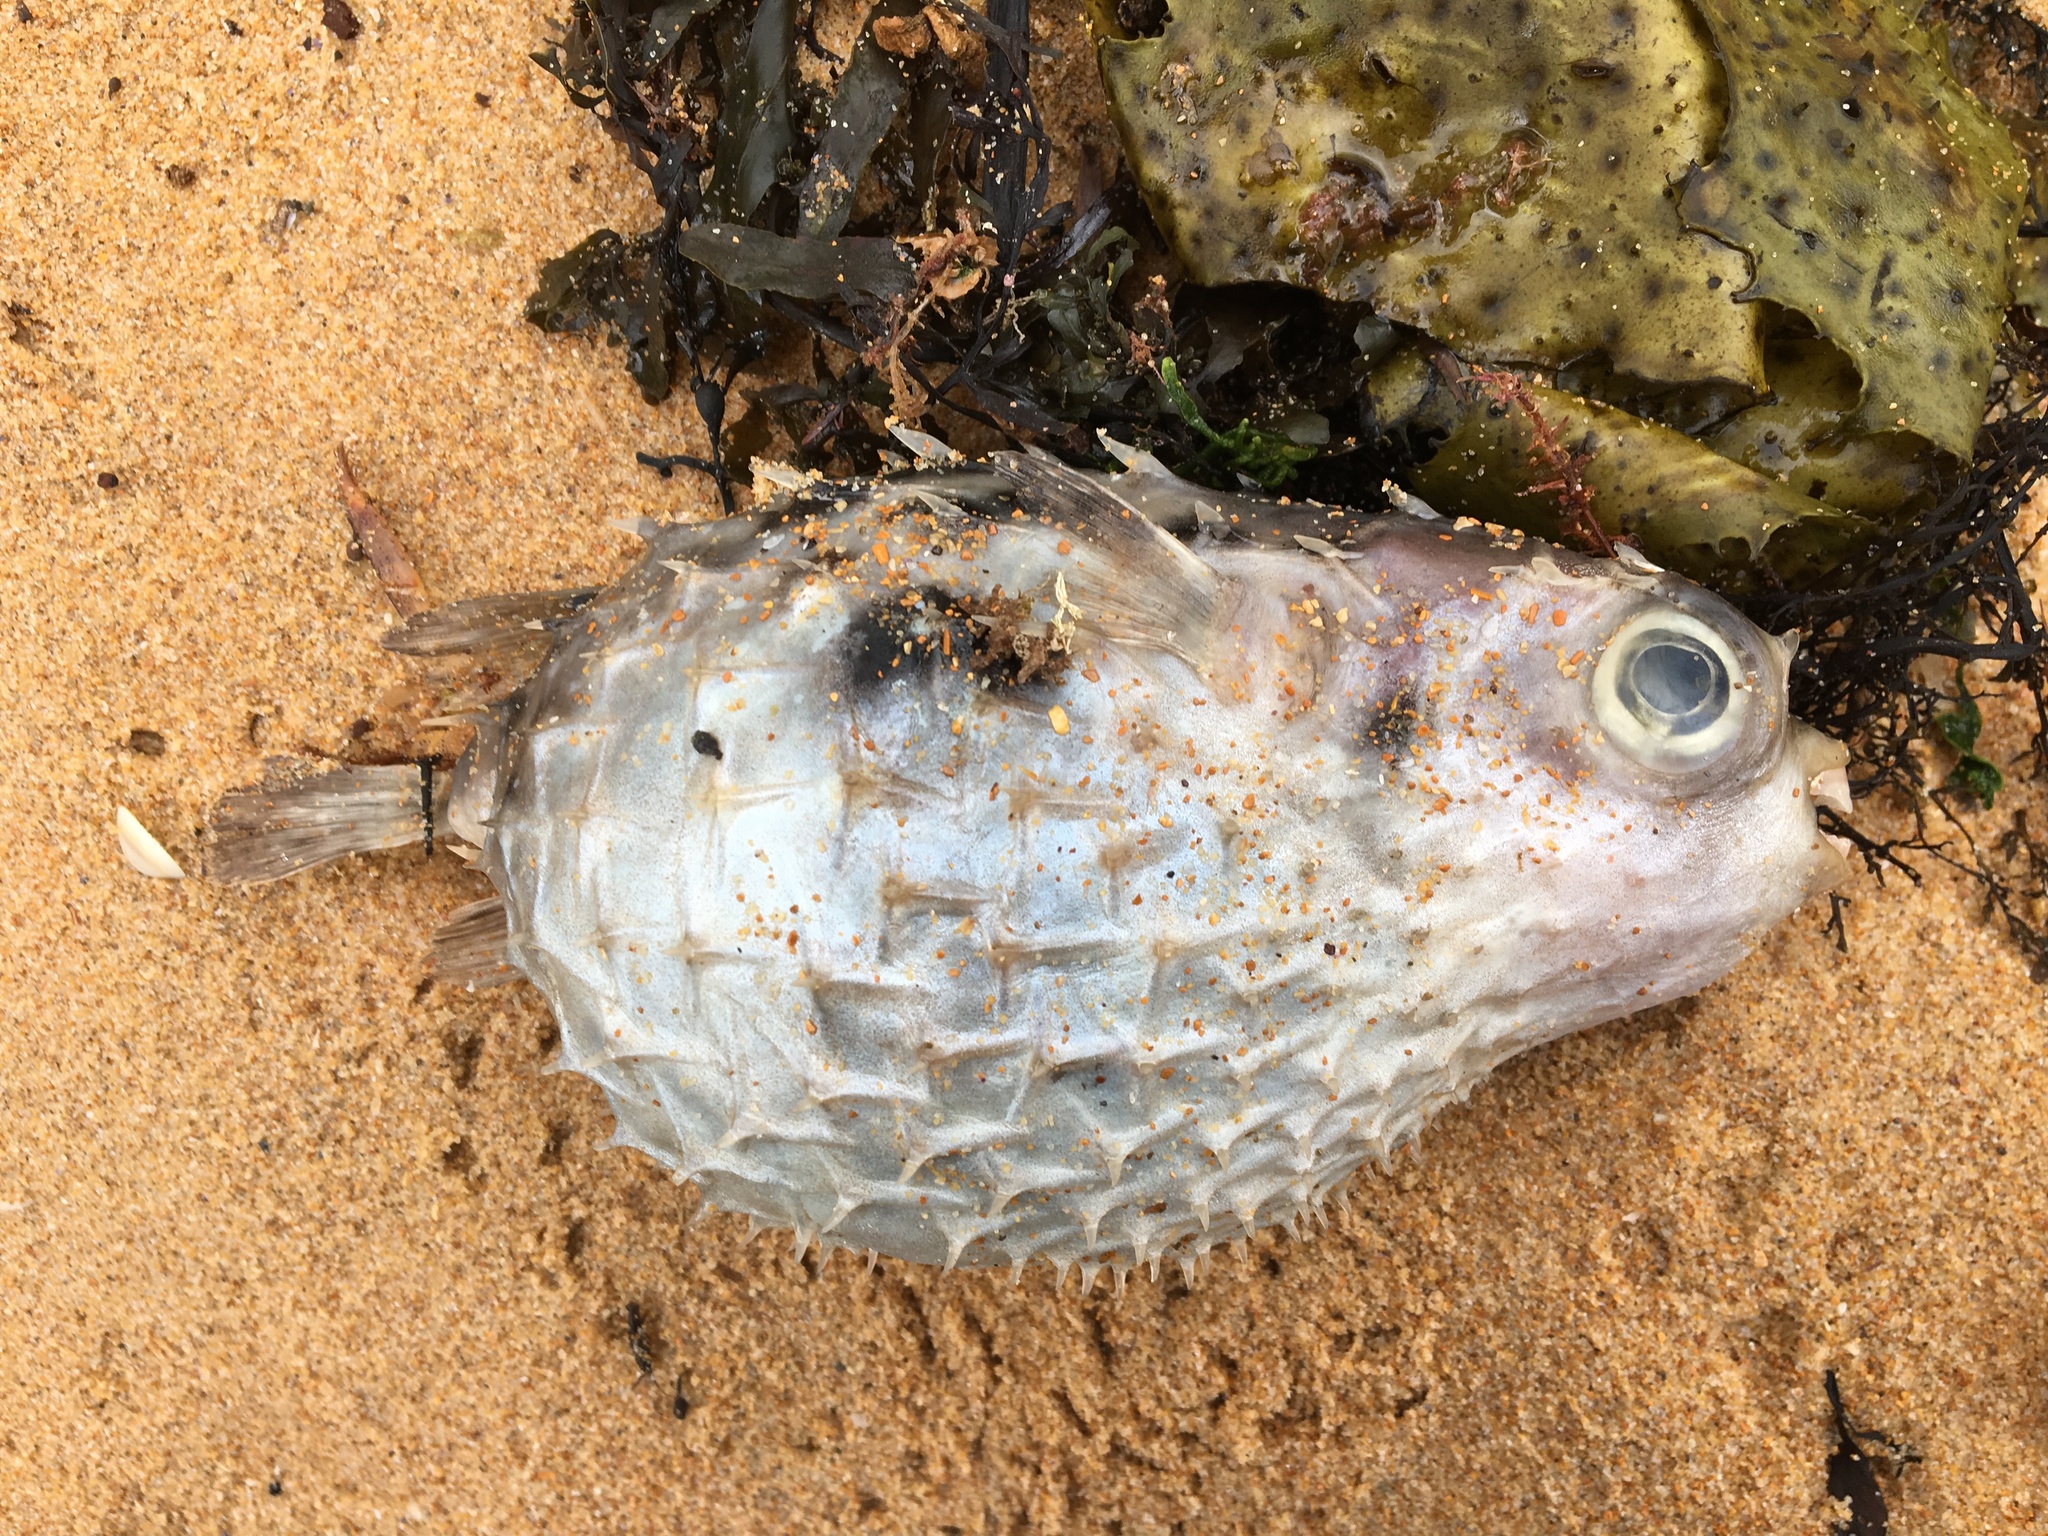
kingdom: Animalia
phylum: Chordata
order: Tetraodontiformes
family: Diodontidae
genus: Allomycterus
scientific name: Allomycterus pilatus
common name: No common name
